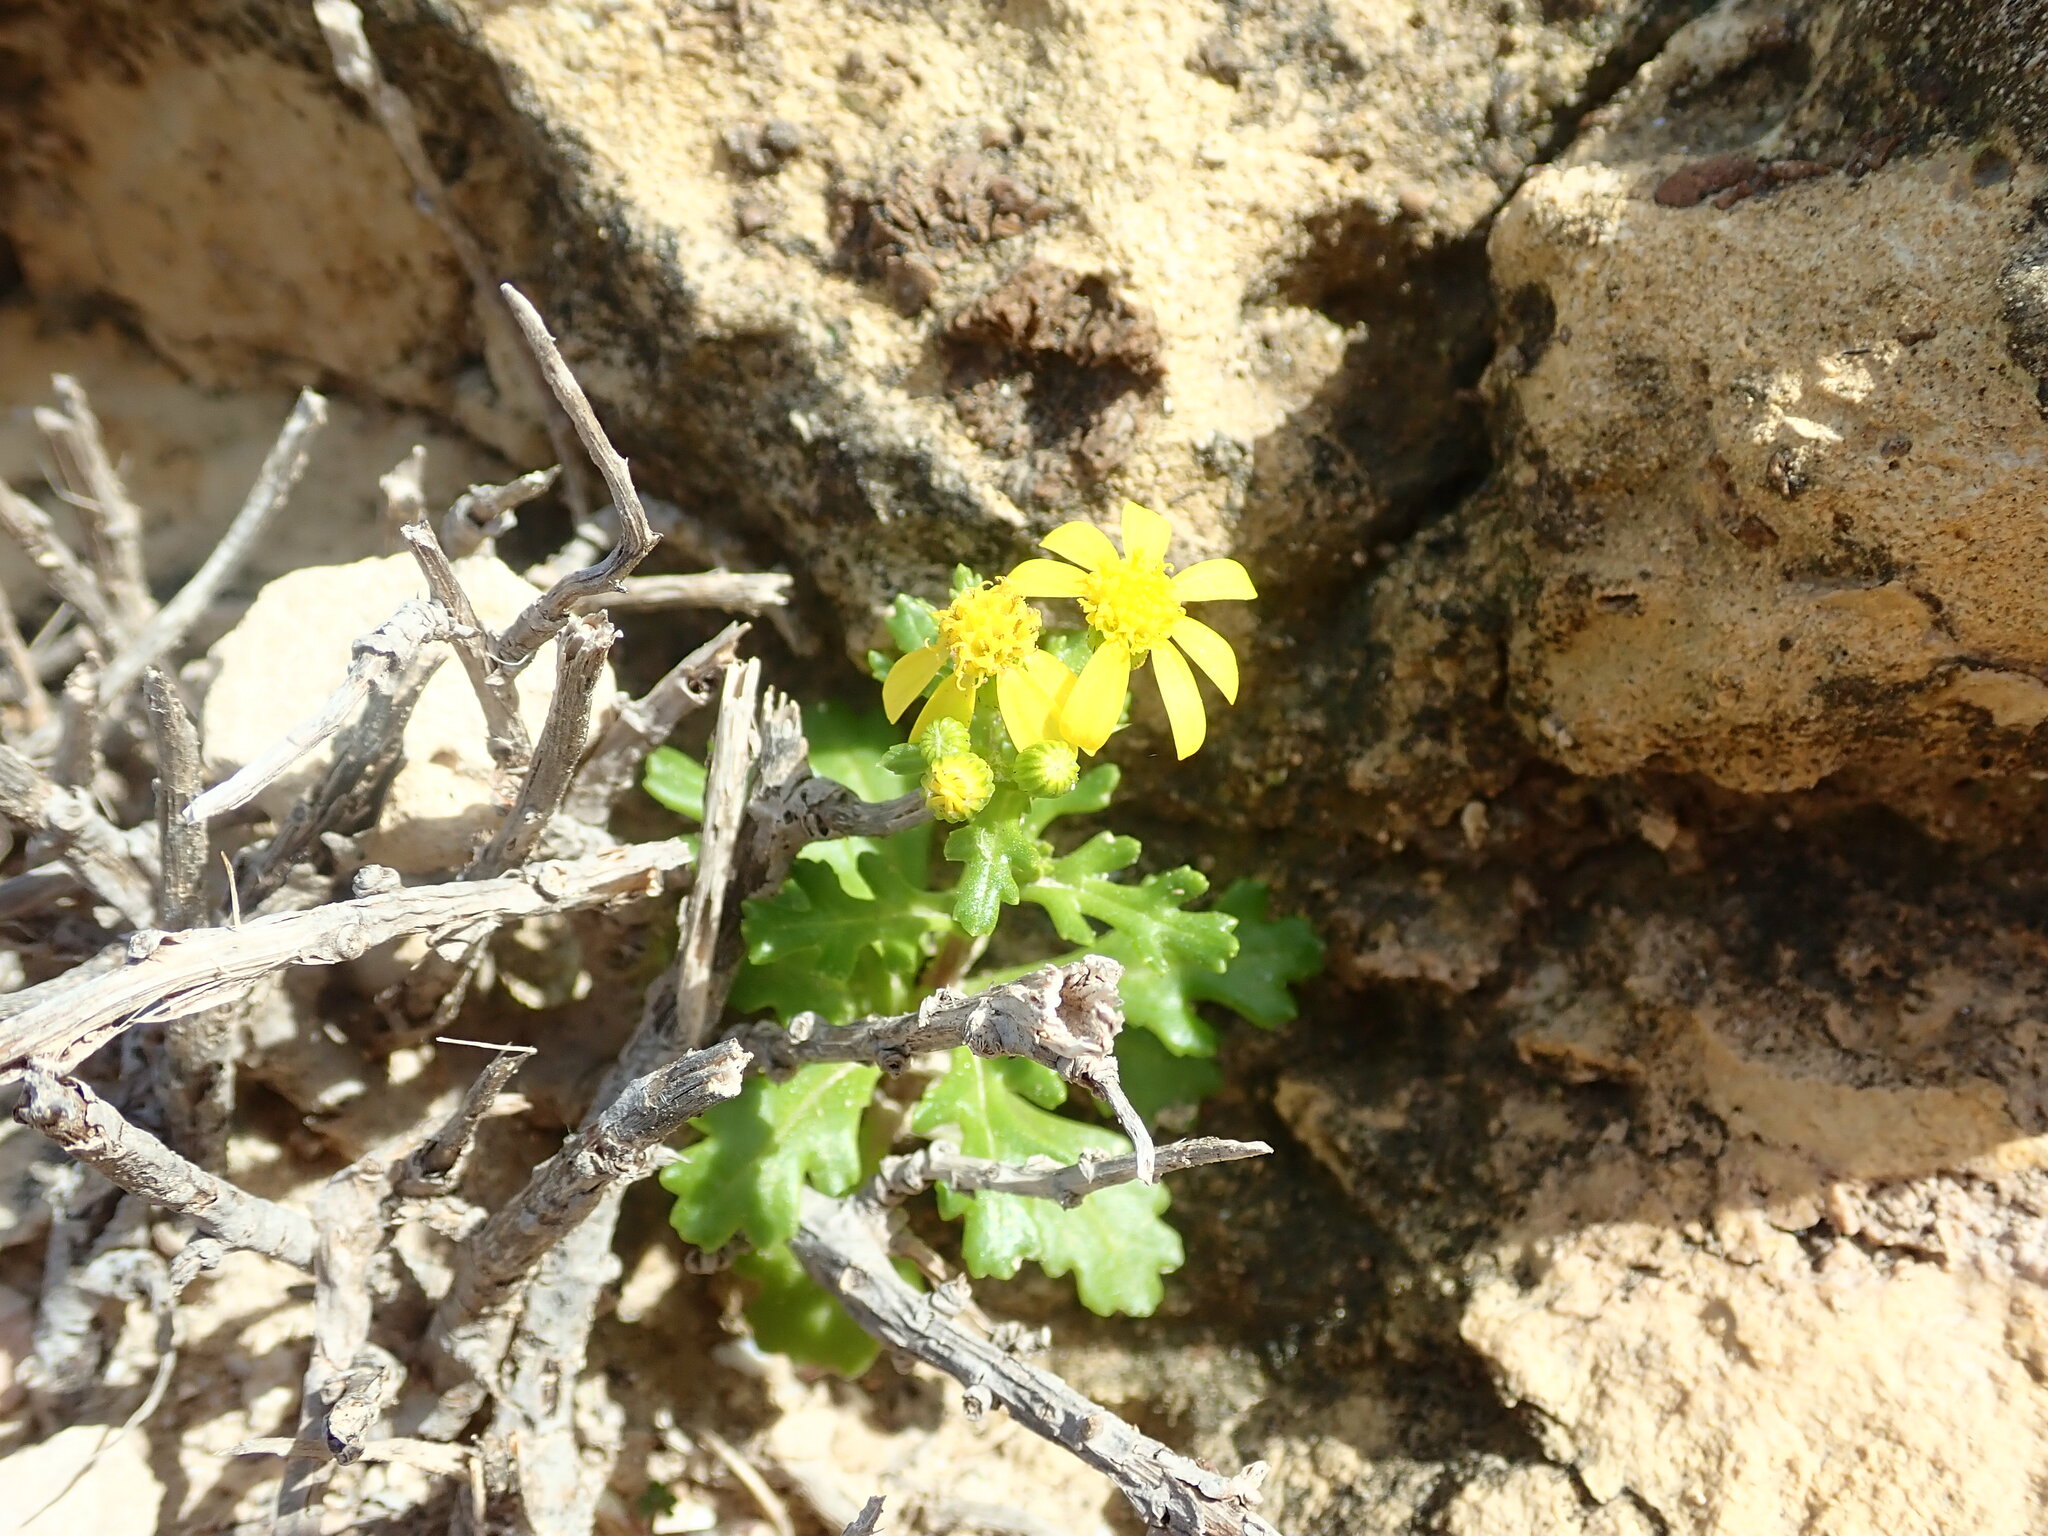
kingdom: Plantae
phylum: Tracheophyta
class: Magnoliopsida
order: Asterales
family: Asteraceae
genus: Senecio
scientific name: Senecio leucanthemifolius
